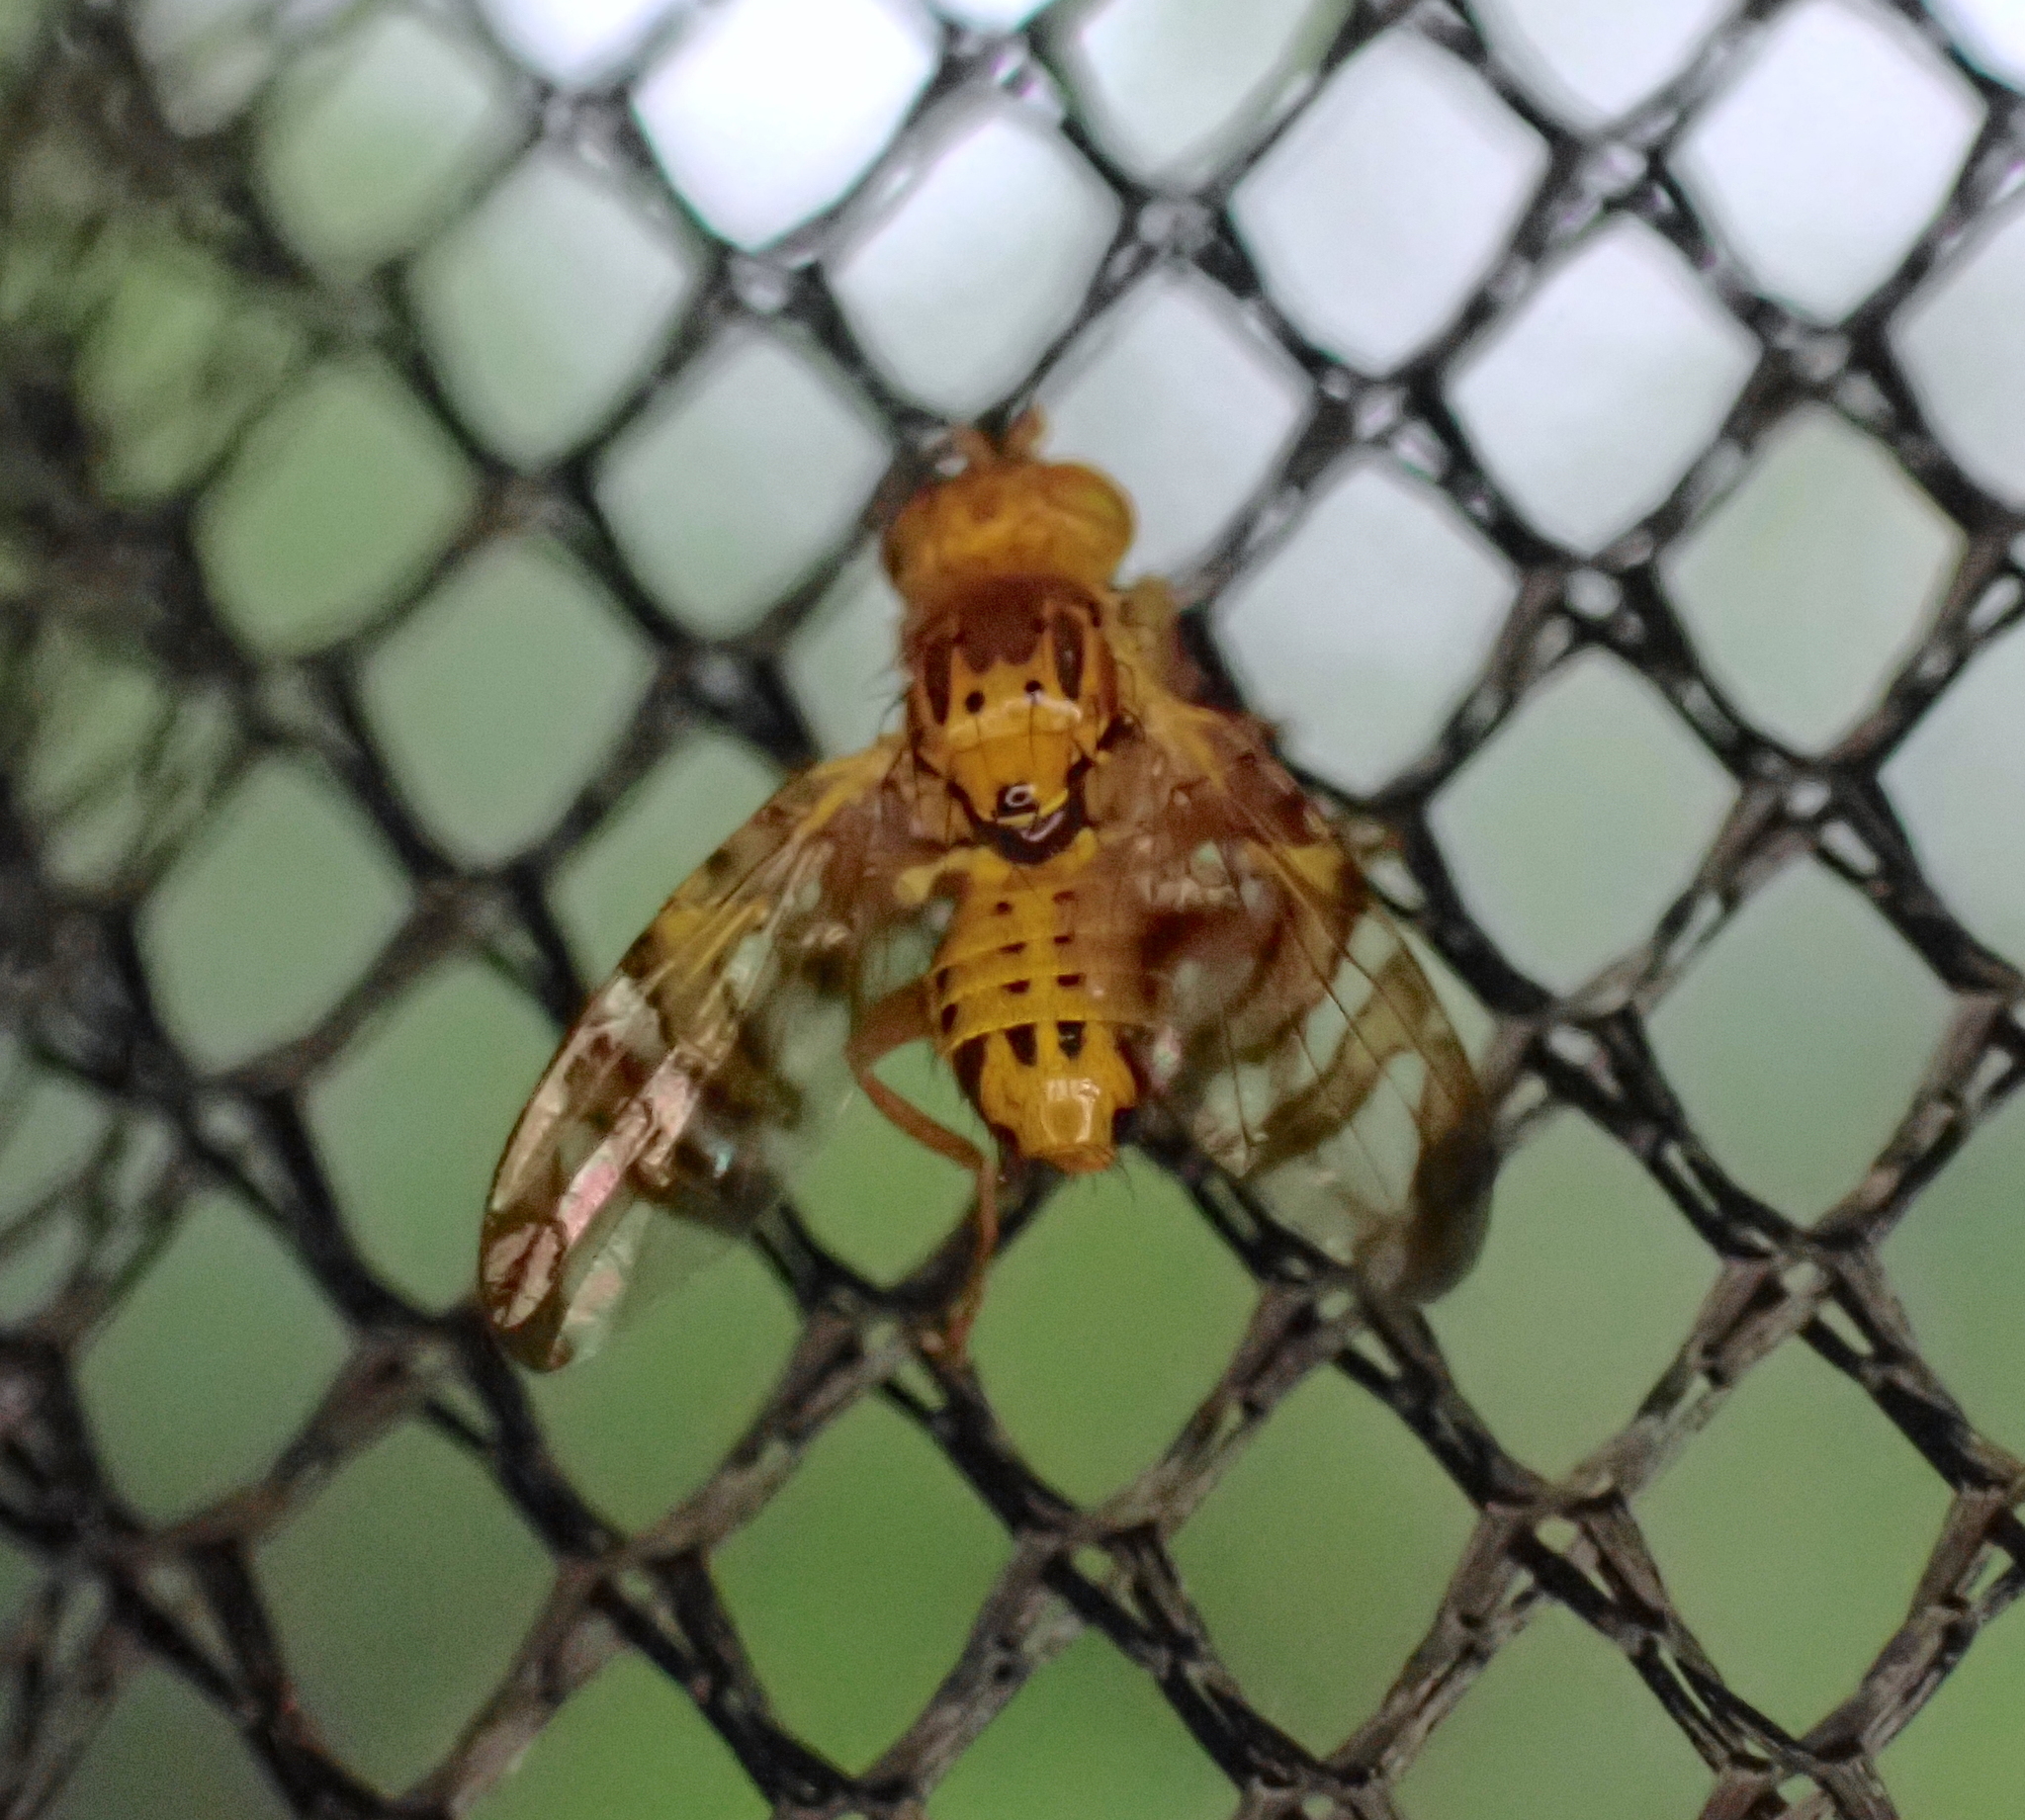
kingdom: Animalia
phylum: Arthropoda
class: Insecta
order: Diptera
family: Tephritidae
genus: Chaetostomella
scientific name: Chaetostomella cylindrica
